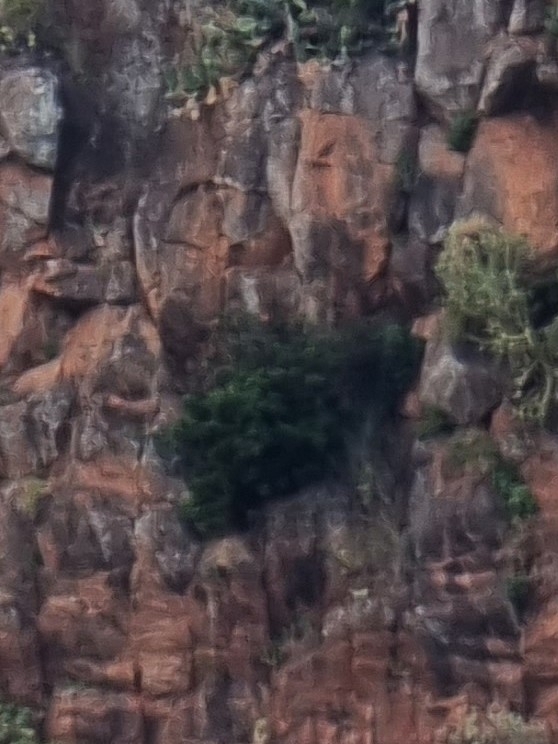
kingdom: Plantae
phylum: Tracheophyta
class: Magnoliopsida
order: Laurales
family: Lauraceae
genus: Apollonias
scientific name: Apollonias barbujana
